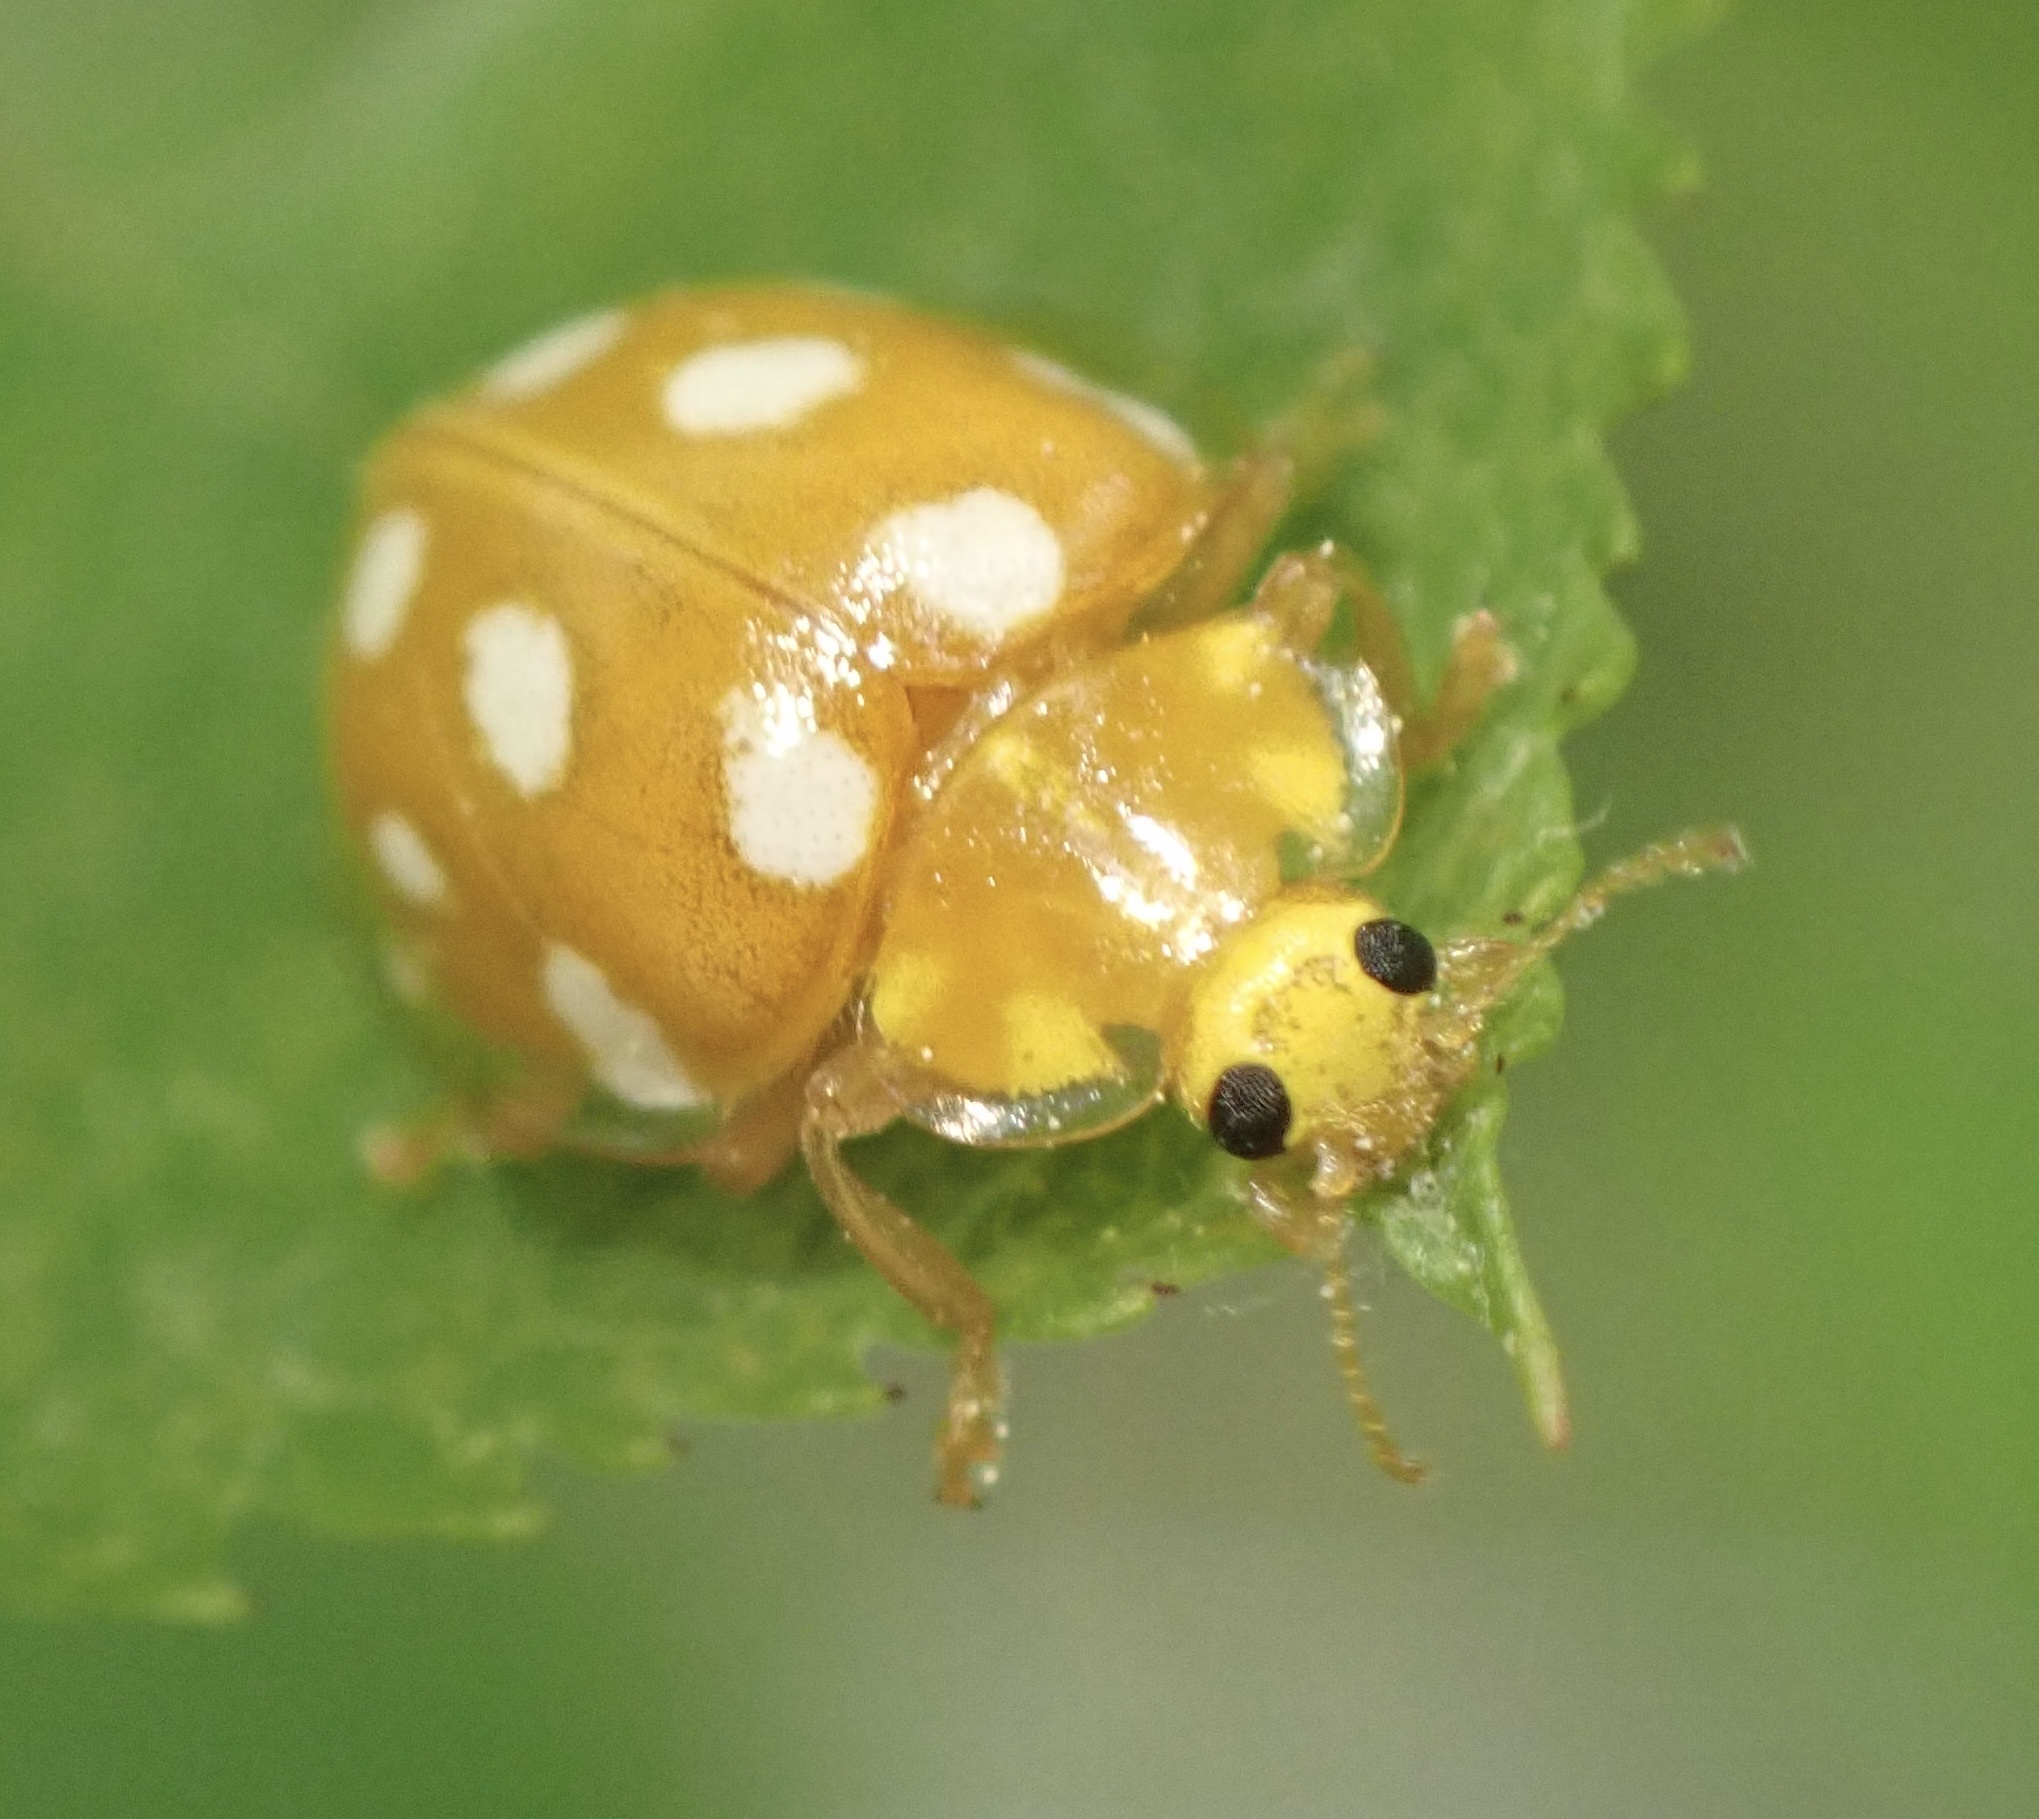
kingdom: Animalia
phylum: Arthropoda
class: Insecta
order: Coleoptera
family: Coccinellidae
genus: Halyzia
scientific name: Halyzia sedecimguttata
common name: Orange ladybird
